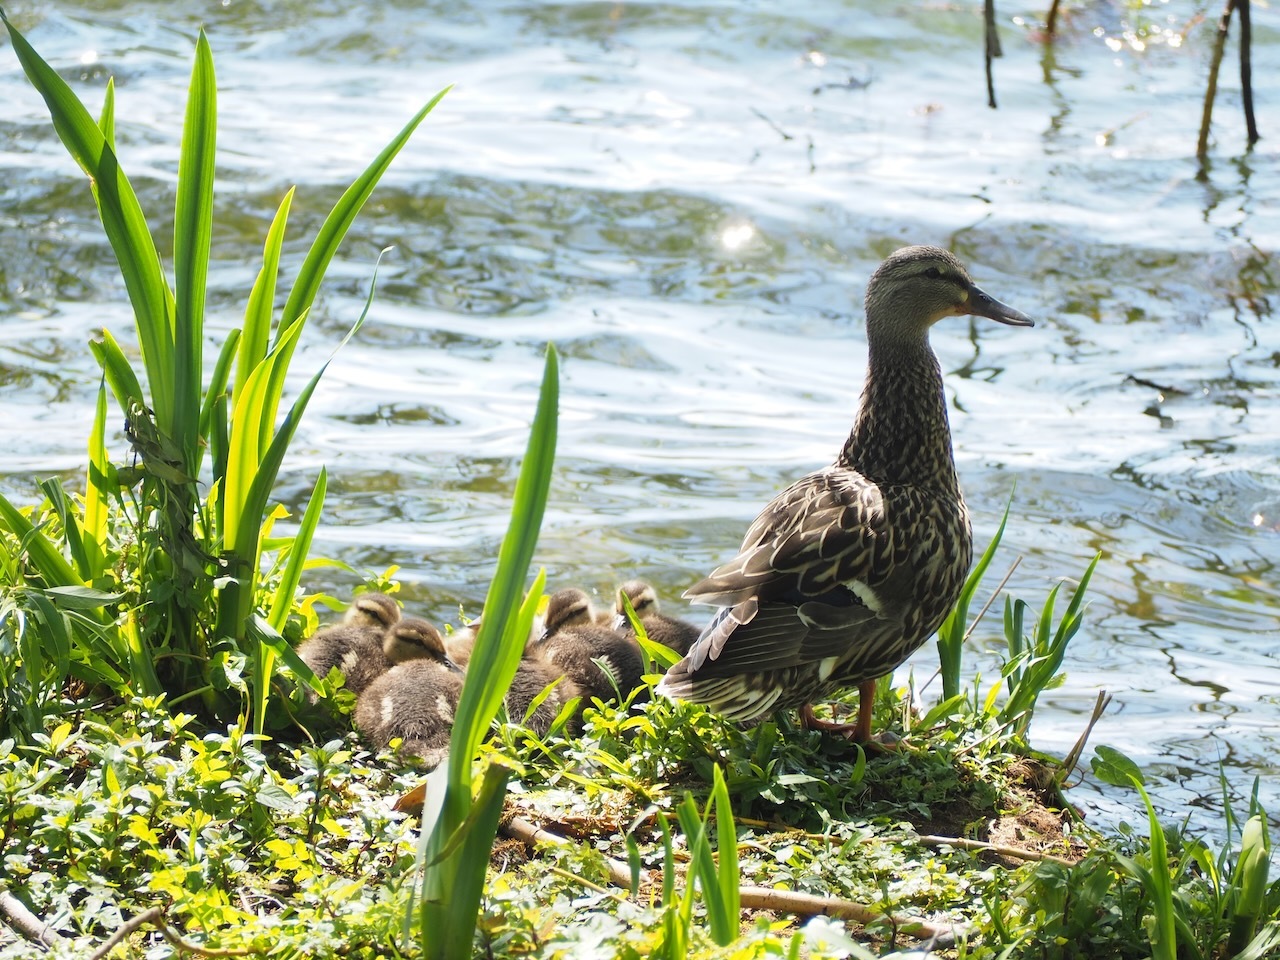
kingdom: Animalia
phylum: Chordata
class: Aves
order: Anseriformes
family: Anatidae
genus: Anas
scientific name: Anas platyrhynchos
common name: Mallard
